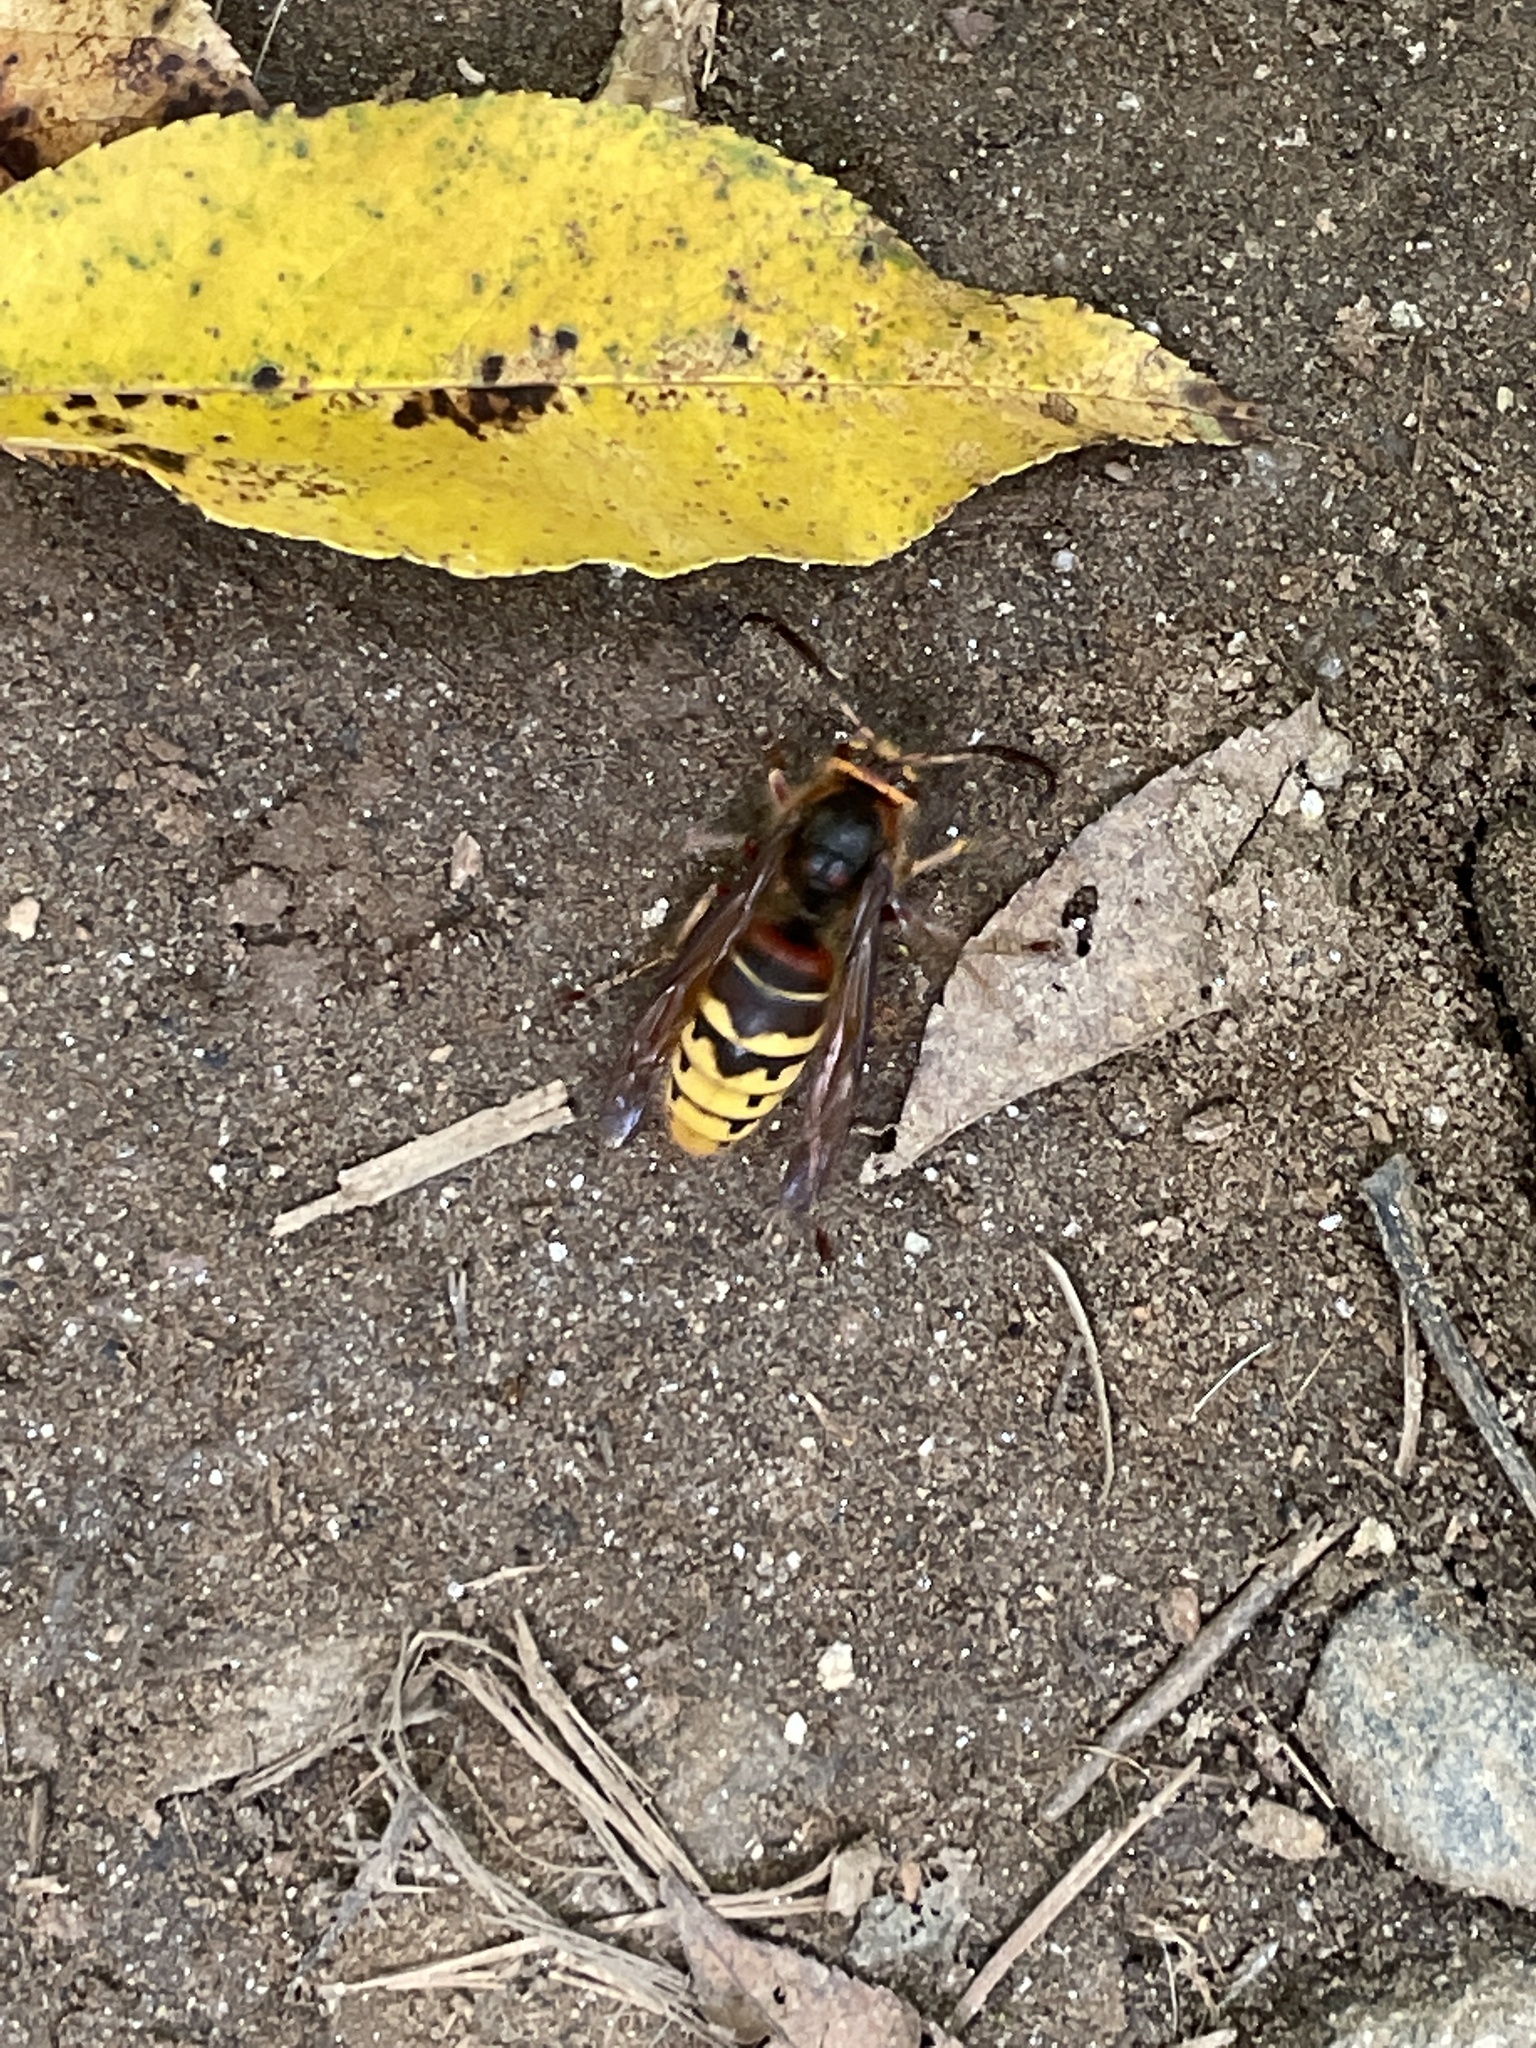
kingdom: Animalia
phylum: Arthropoda
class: Insecta
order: Hymenoptera
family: Vespidae
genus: Vespa
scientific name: Vespa crabro
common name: Hornet
